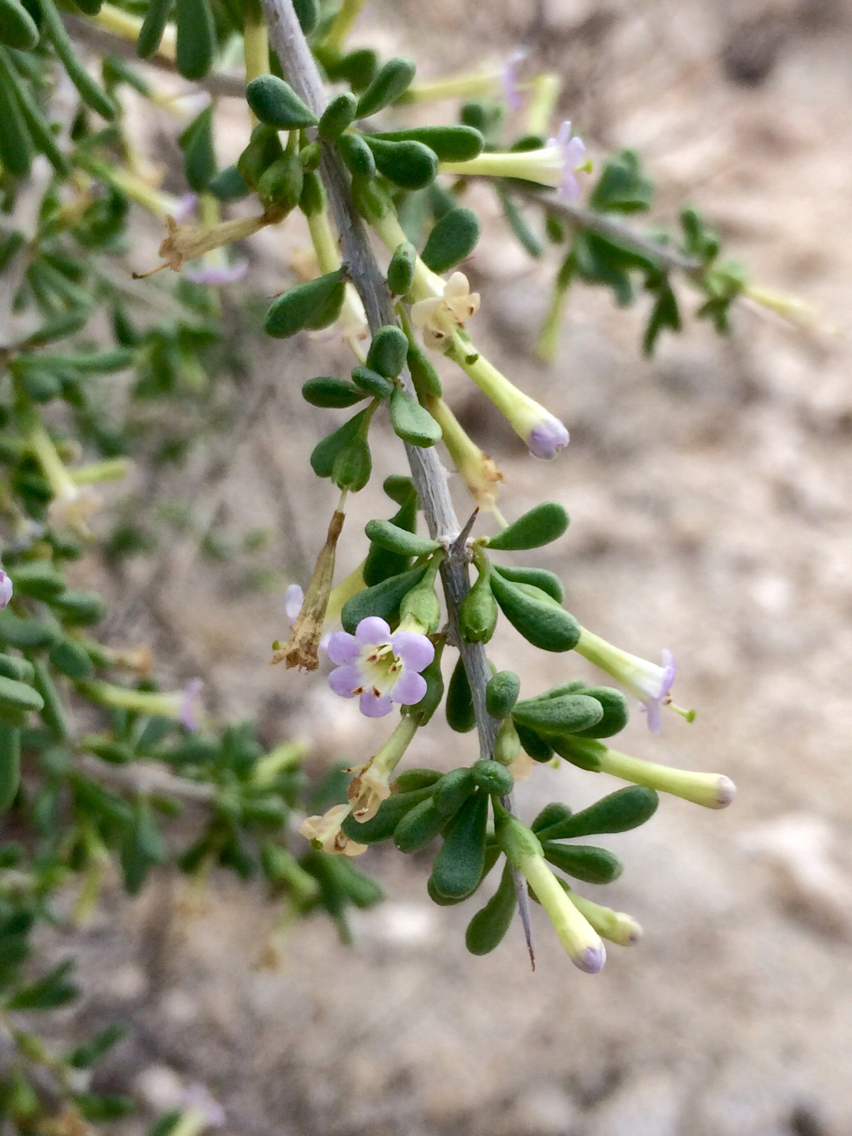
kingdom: Plantae
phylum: Tracheophyta
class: Magnoliopsida
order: Solanales
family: Solanaceae
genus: Lycium
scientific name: Lycium andersonii
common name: Water-jacket
